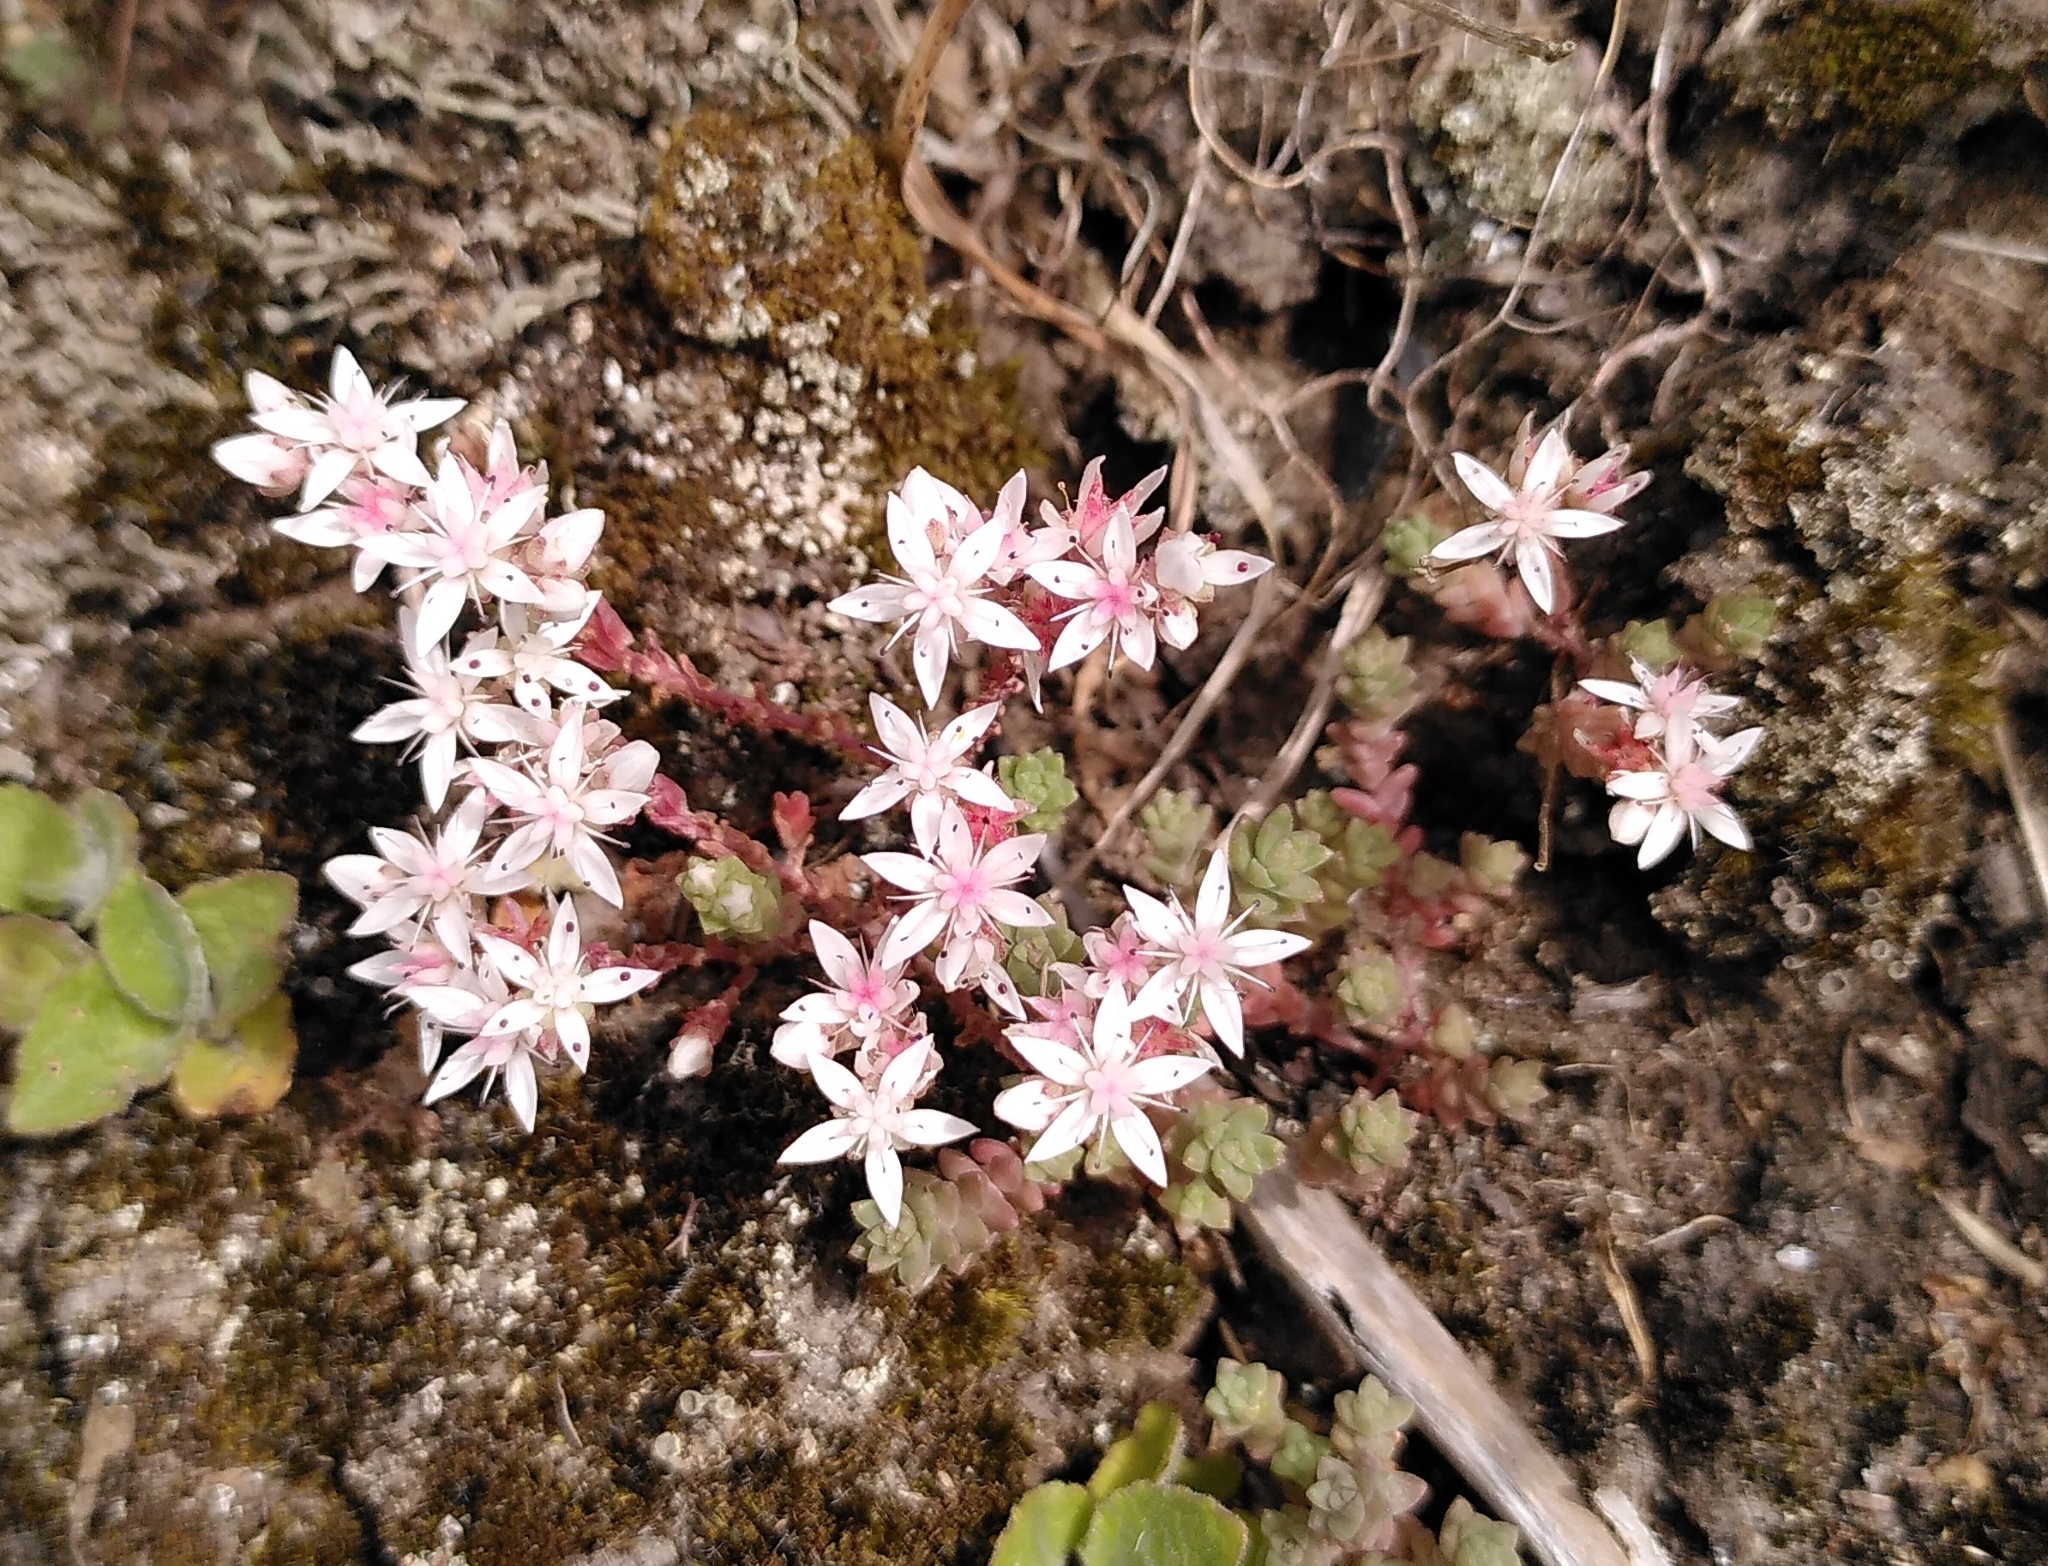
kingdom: Plantae
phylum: Tracheophyta
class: Magnoliopsida
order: Saxifragales
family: Crassulaceae
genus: Sedum
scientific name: Sedum anglicum
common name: English stonecrop
